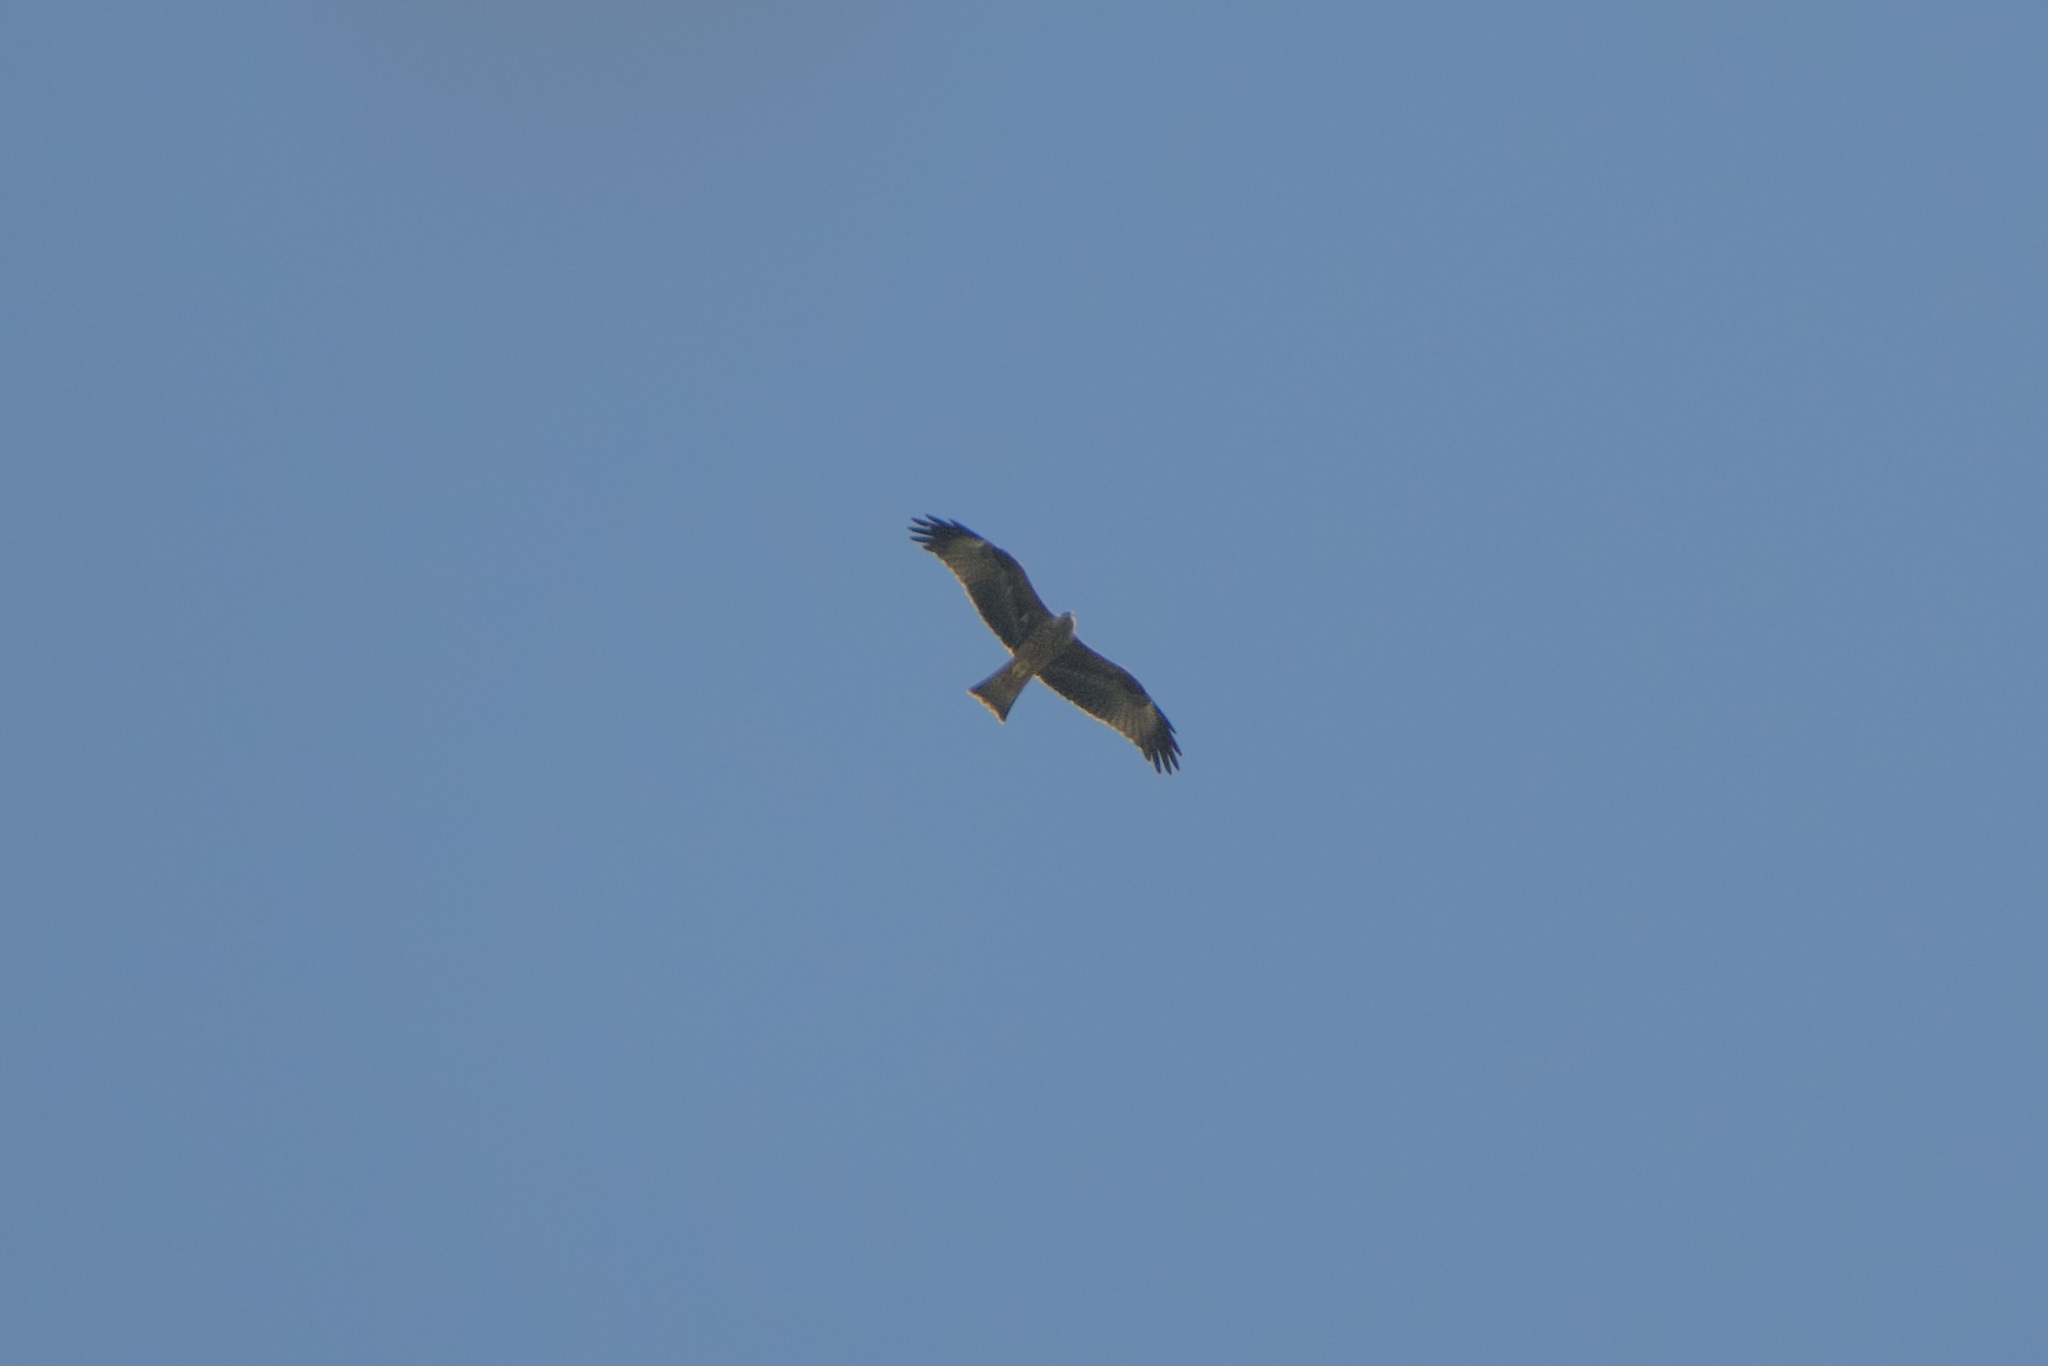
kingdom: Animalia
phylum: Chordata
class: Aves
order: Accipitriformes
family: Accipitridae
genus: Milvus
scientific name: Milvus migrans
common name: Black kite
